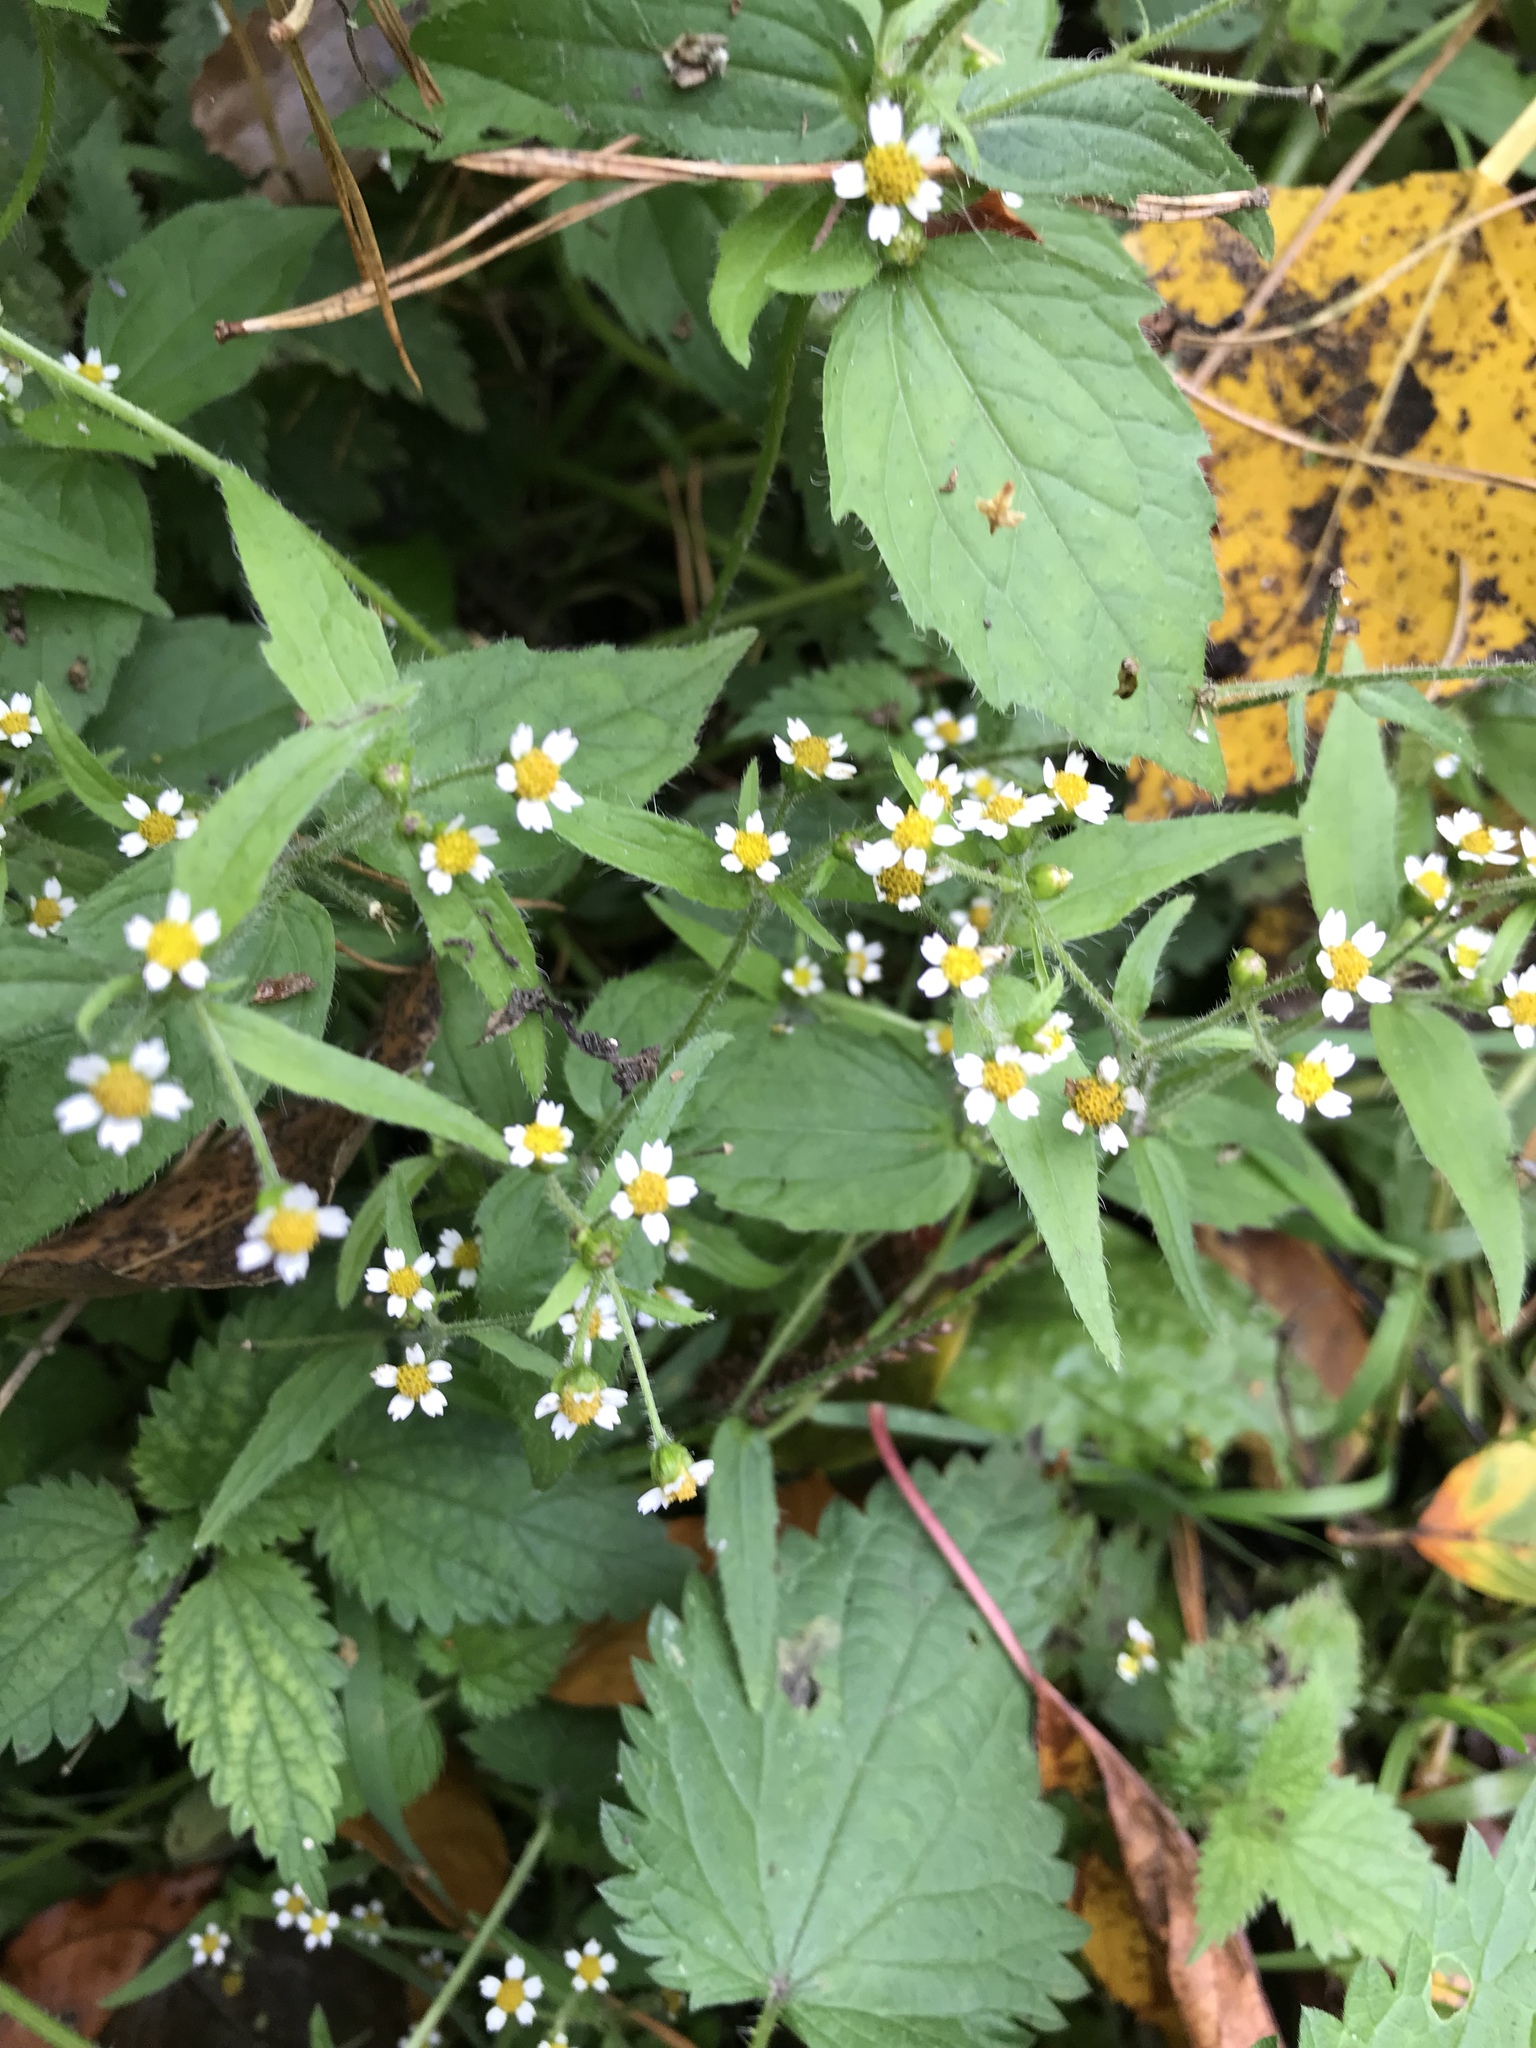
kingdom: Plantae
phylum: Tracheophyta
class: Magnoliopsida
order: Asterales
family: Asteraceae
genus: Galinsoga
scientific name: Galinsoga quadriradiata
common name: Shaggy soldier
